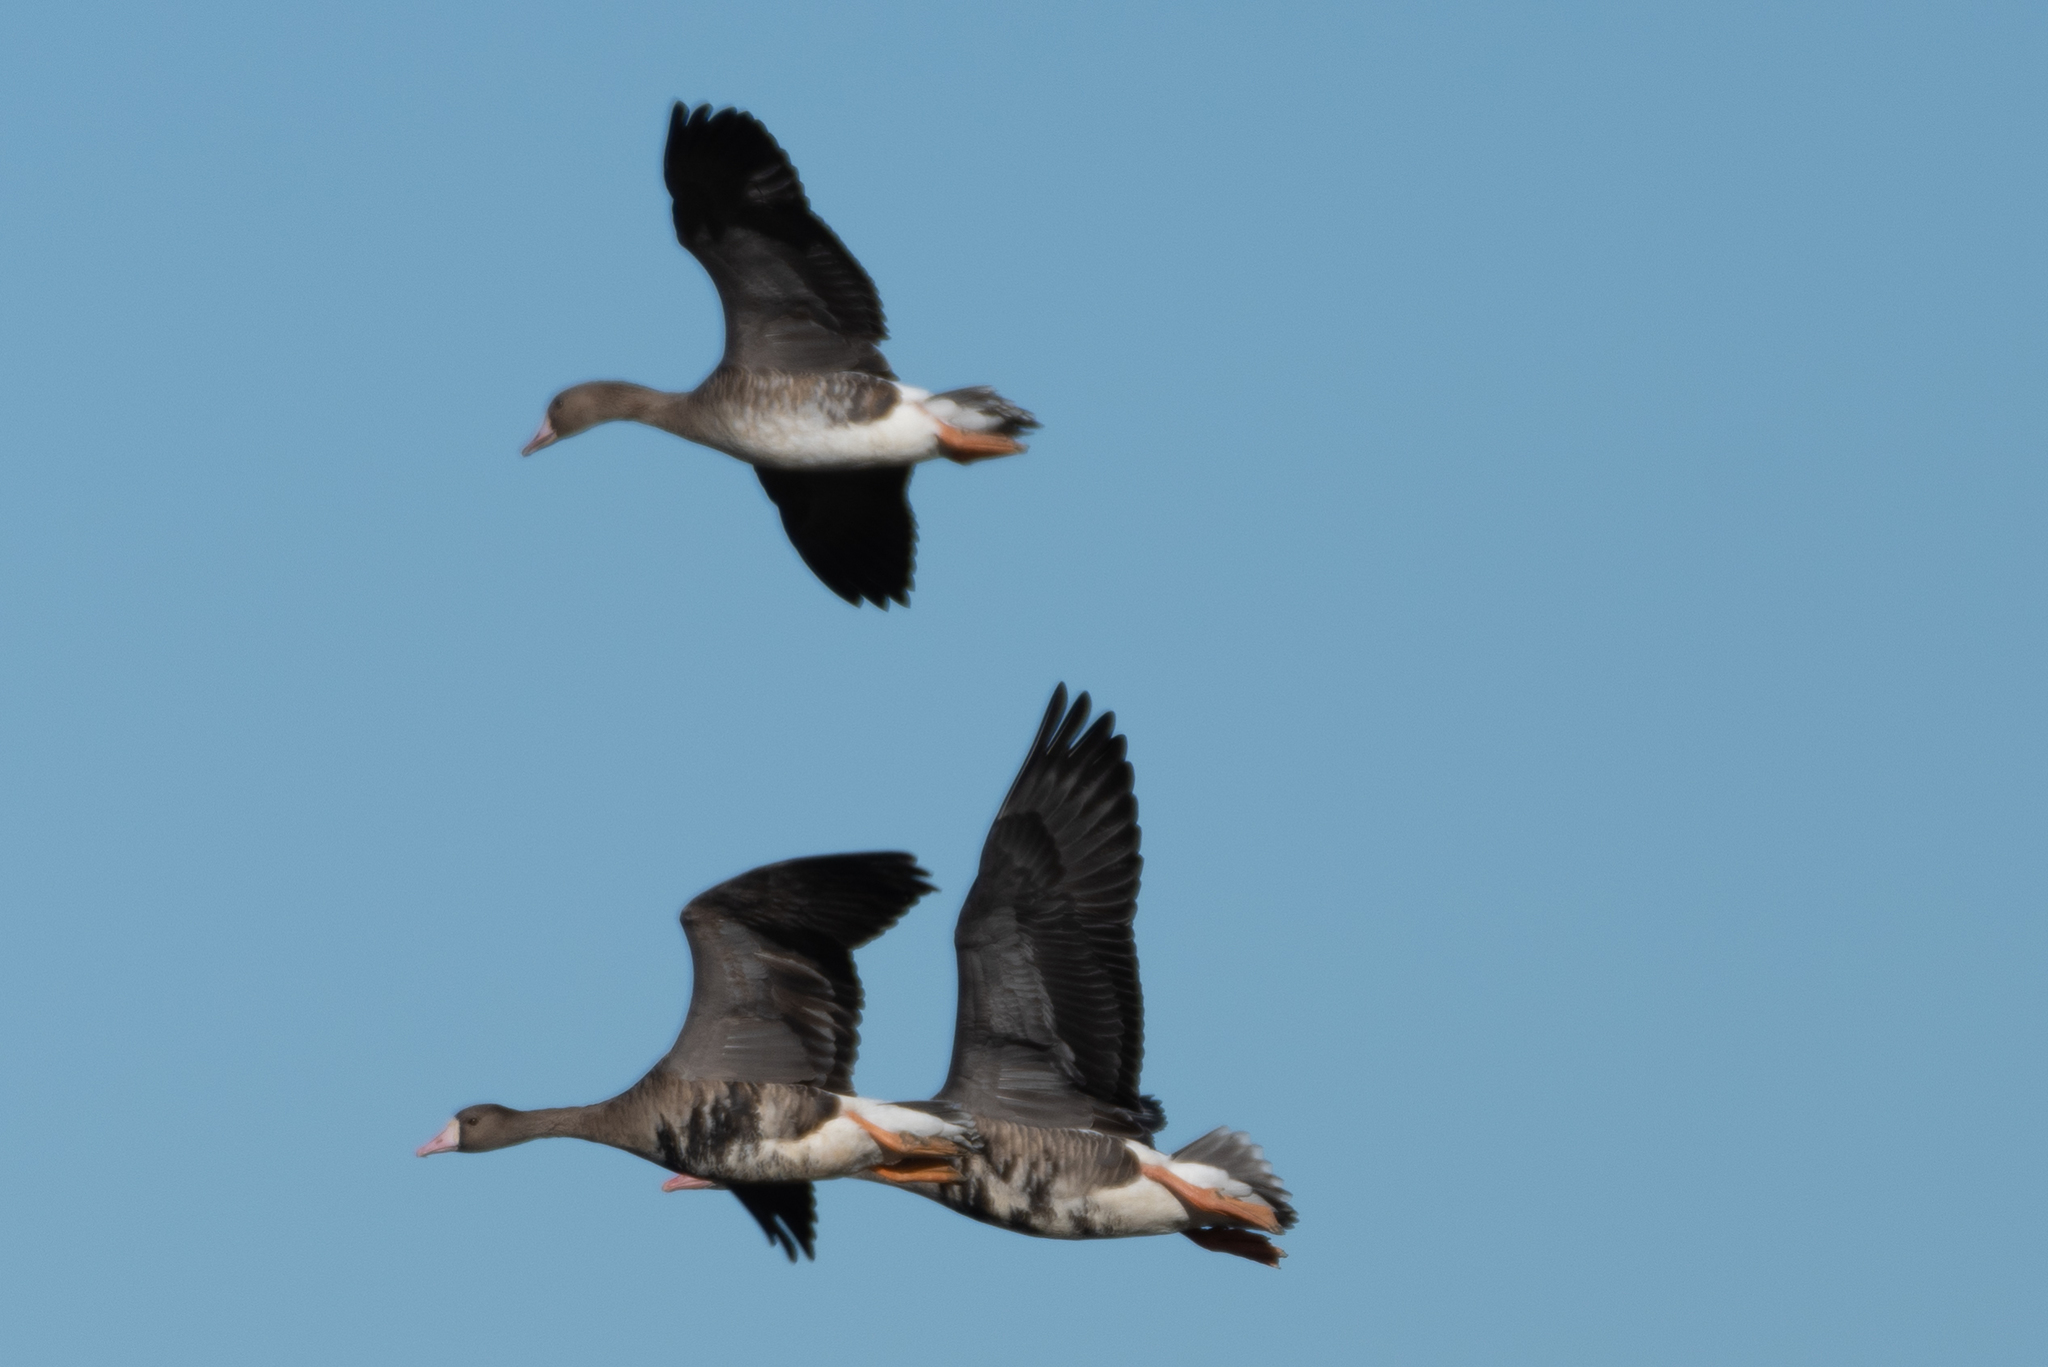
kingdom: Animalia
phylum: Chordata
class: Aves
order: Anseriformes
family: Anatidae
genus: Anser
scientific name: Anser albifrons
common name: Greater white-fronted goose
